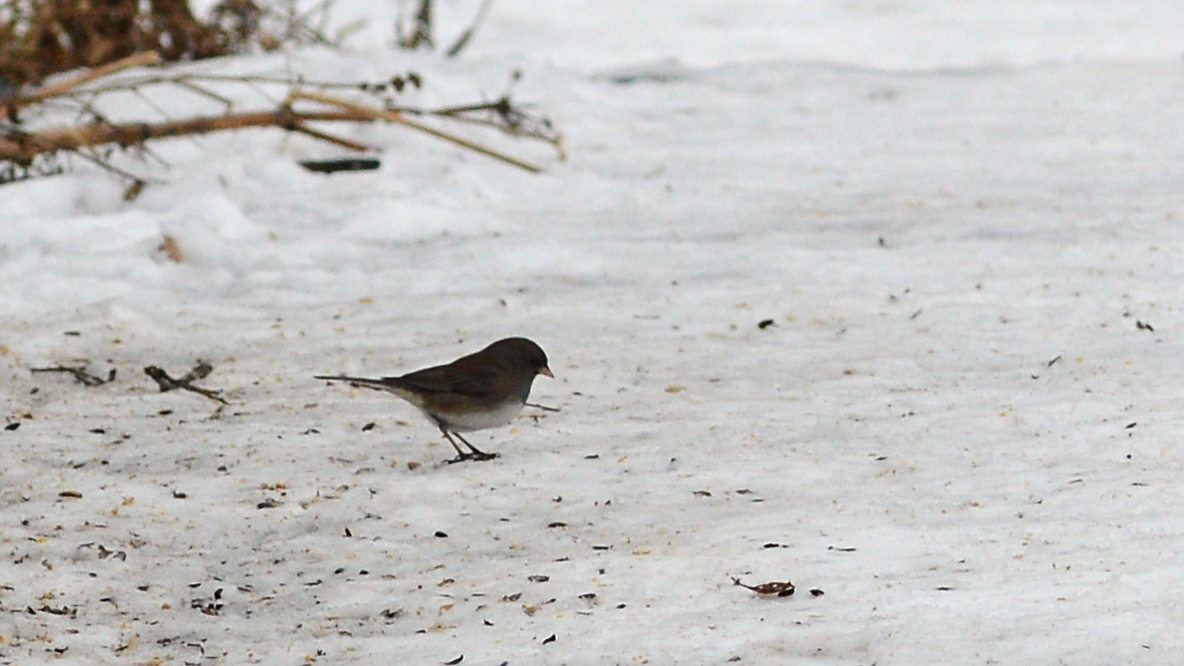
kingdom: Animalia
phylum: Chordata
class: Aves
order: Passeriformes
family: Passerellidae
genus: Junco
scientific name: Junco hyemalis
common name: Dark-eyed junco
